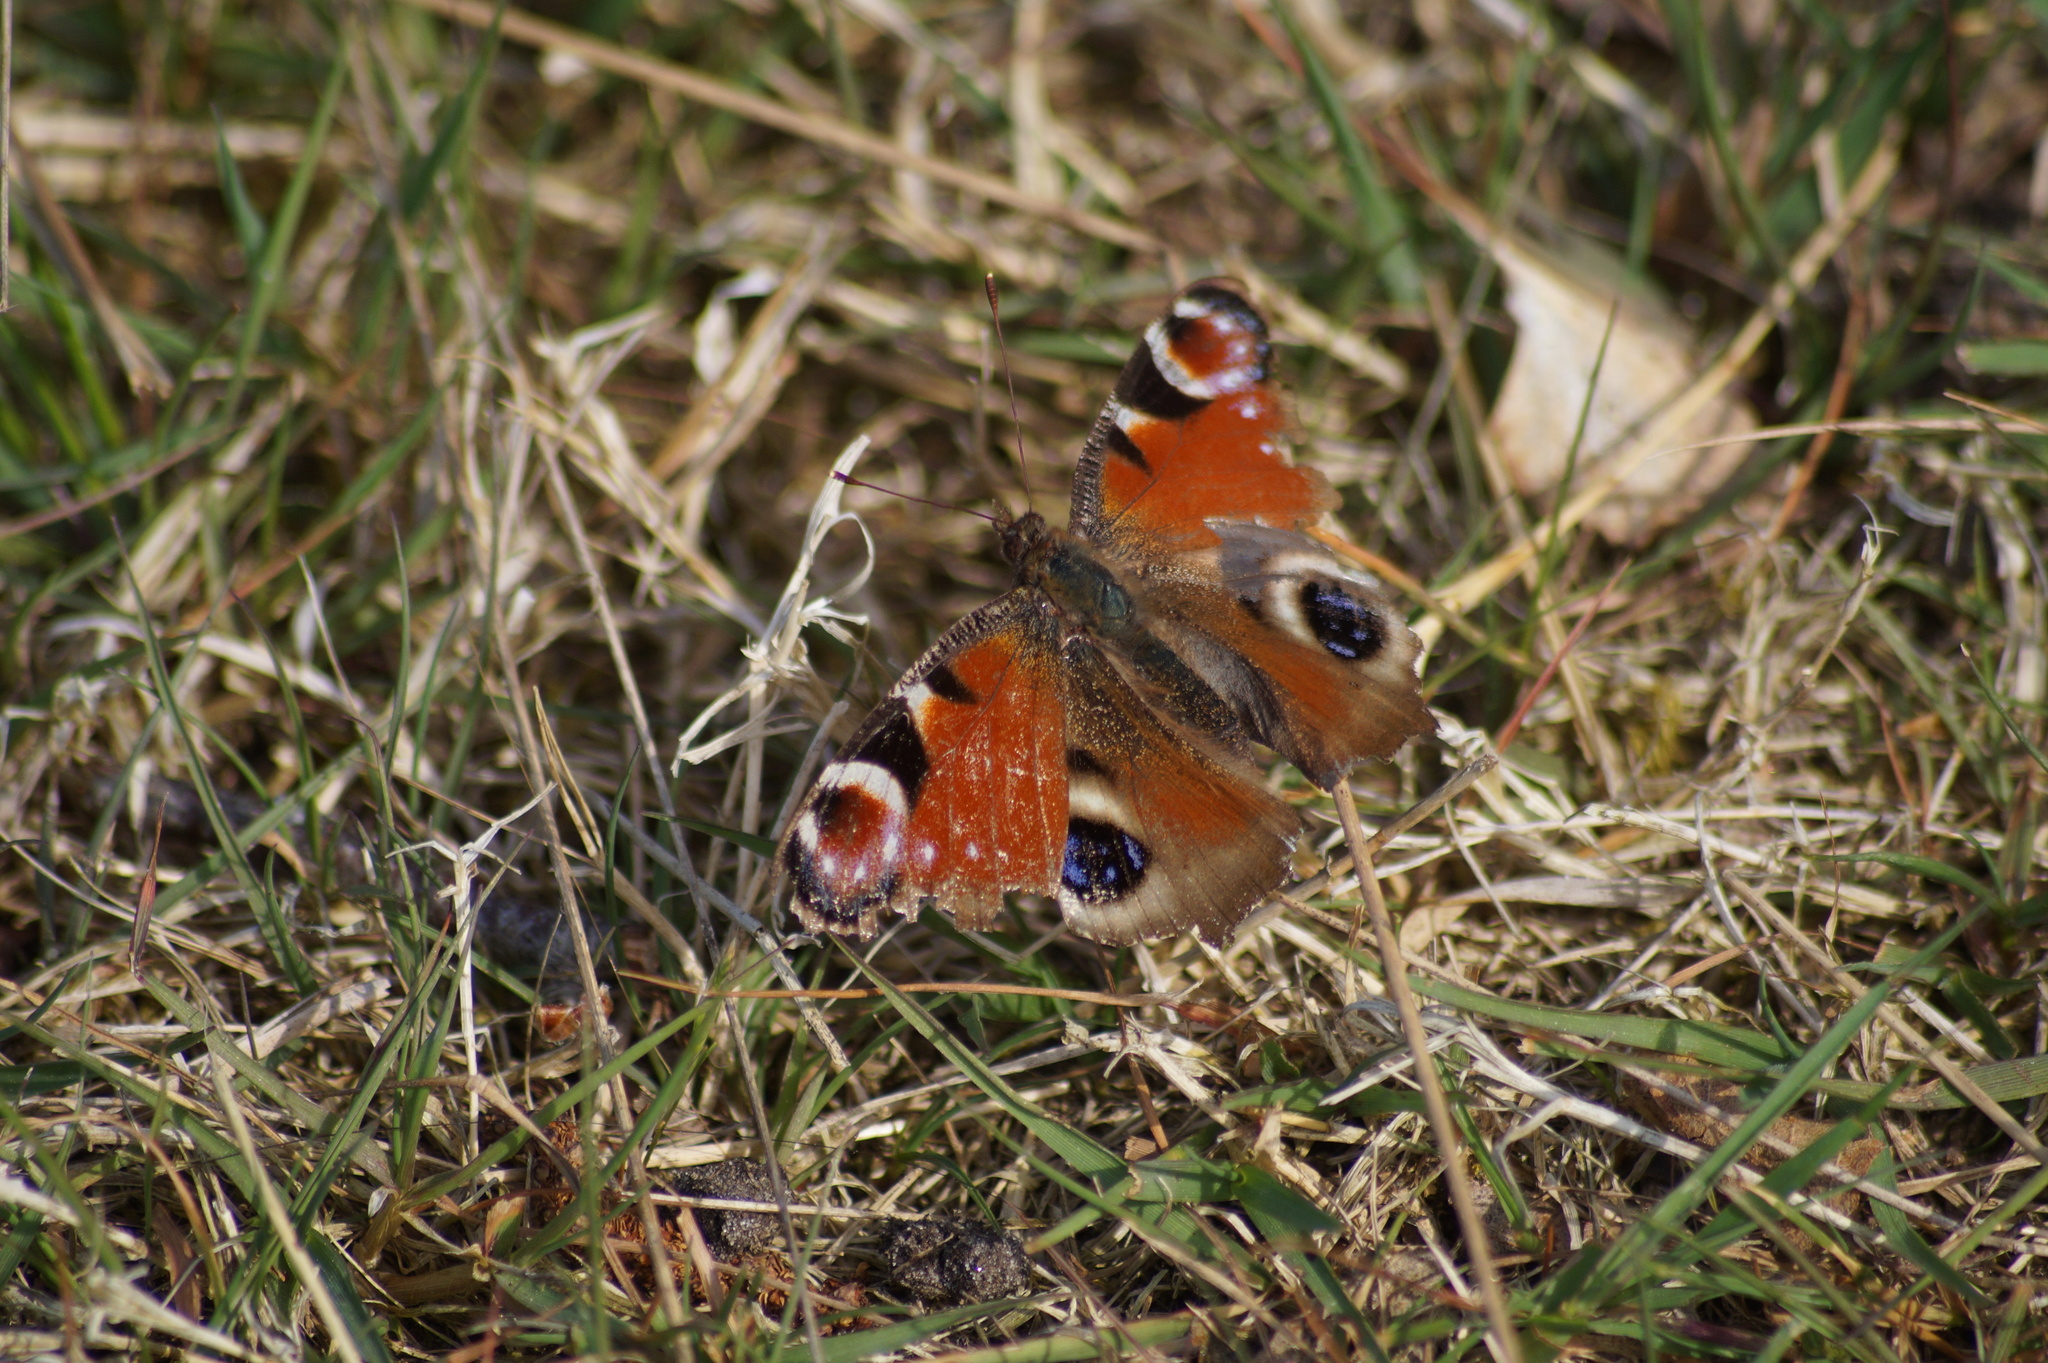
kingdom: Animalia
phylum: Arthropoda
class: Insecta
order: Lepidoptera
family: Nymphalidae
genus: Aglais
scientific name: Aglais io
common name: Peacock
